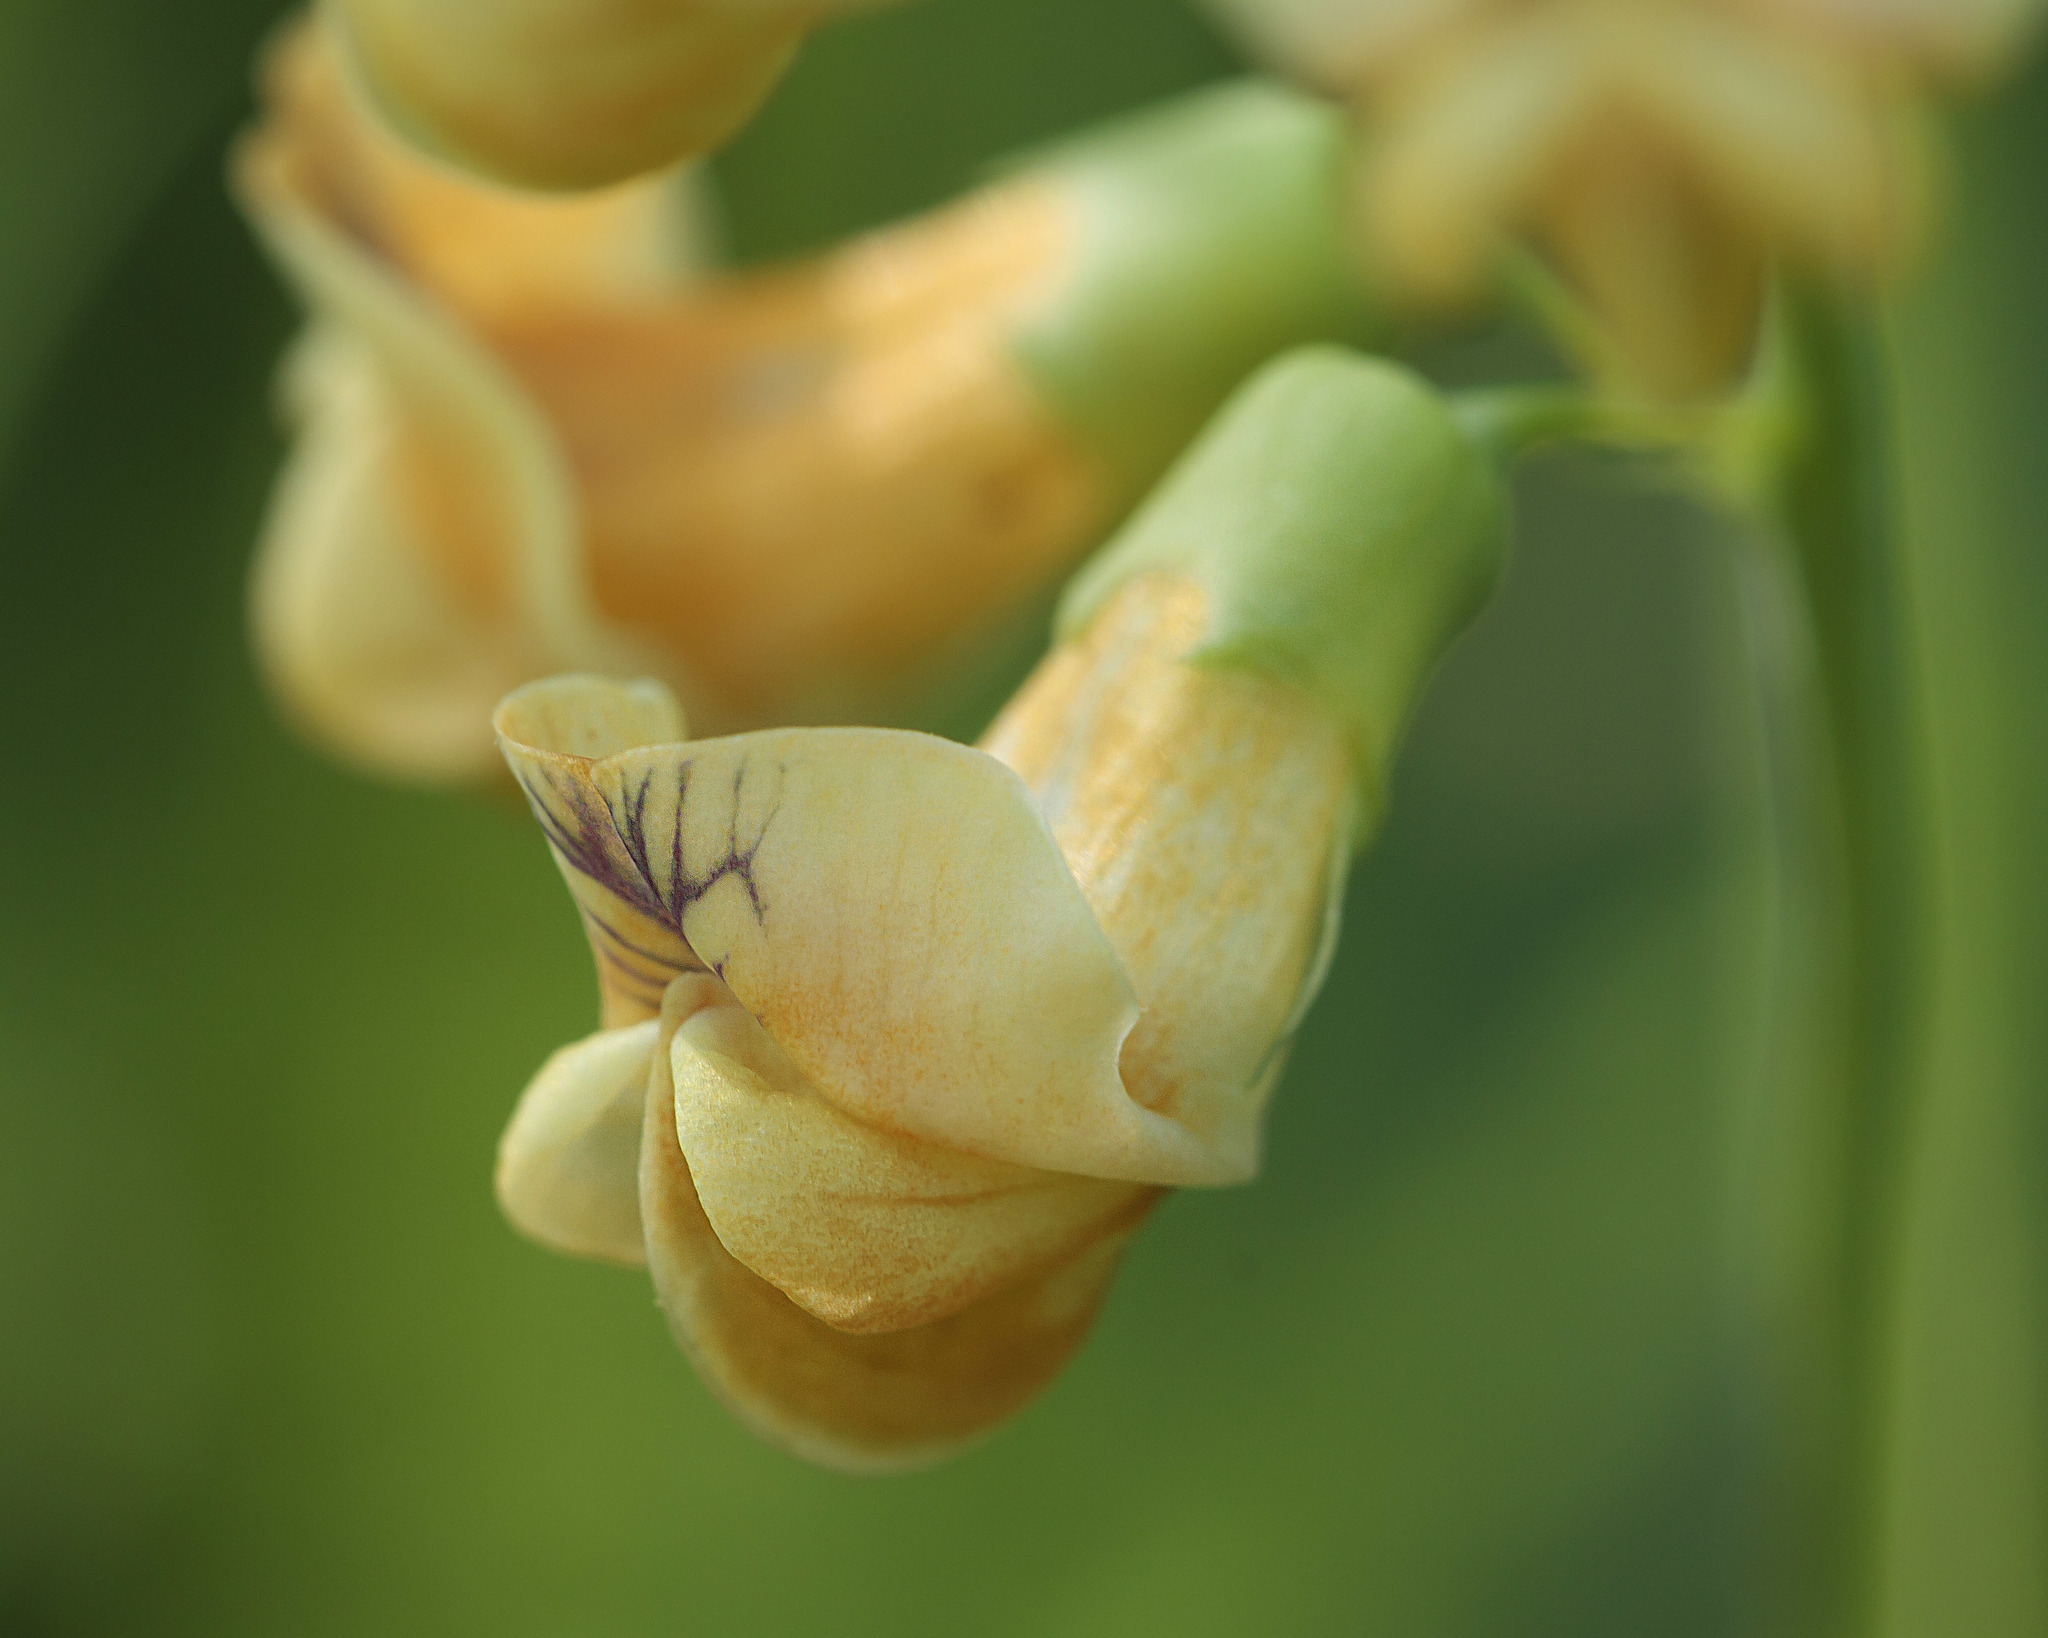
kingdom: Plantae
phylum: Tracheophyta
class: Magnoliopsida
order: Fabales
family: Fabaceae
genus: Lathyrus
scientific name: Lathyrus sulphureus
